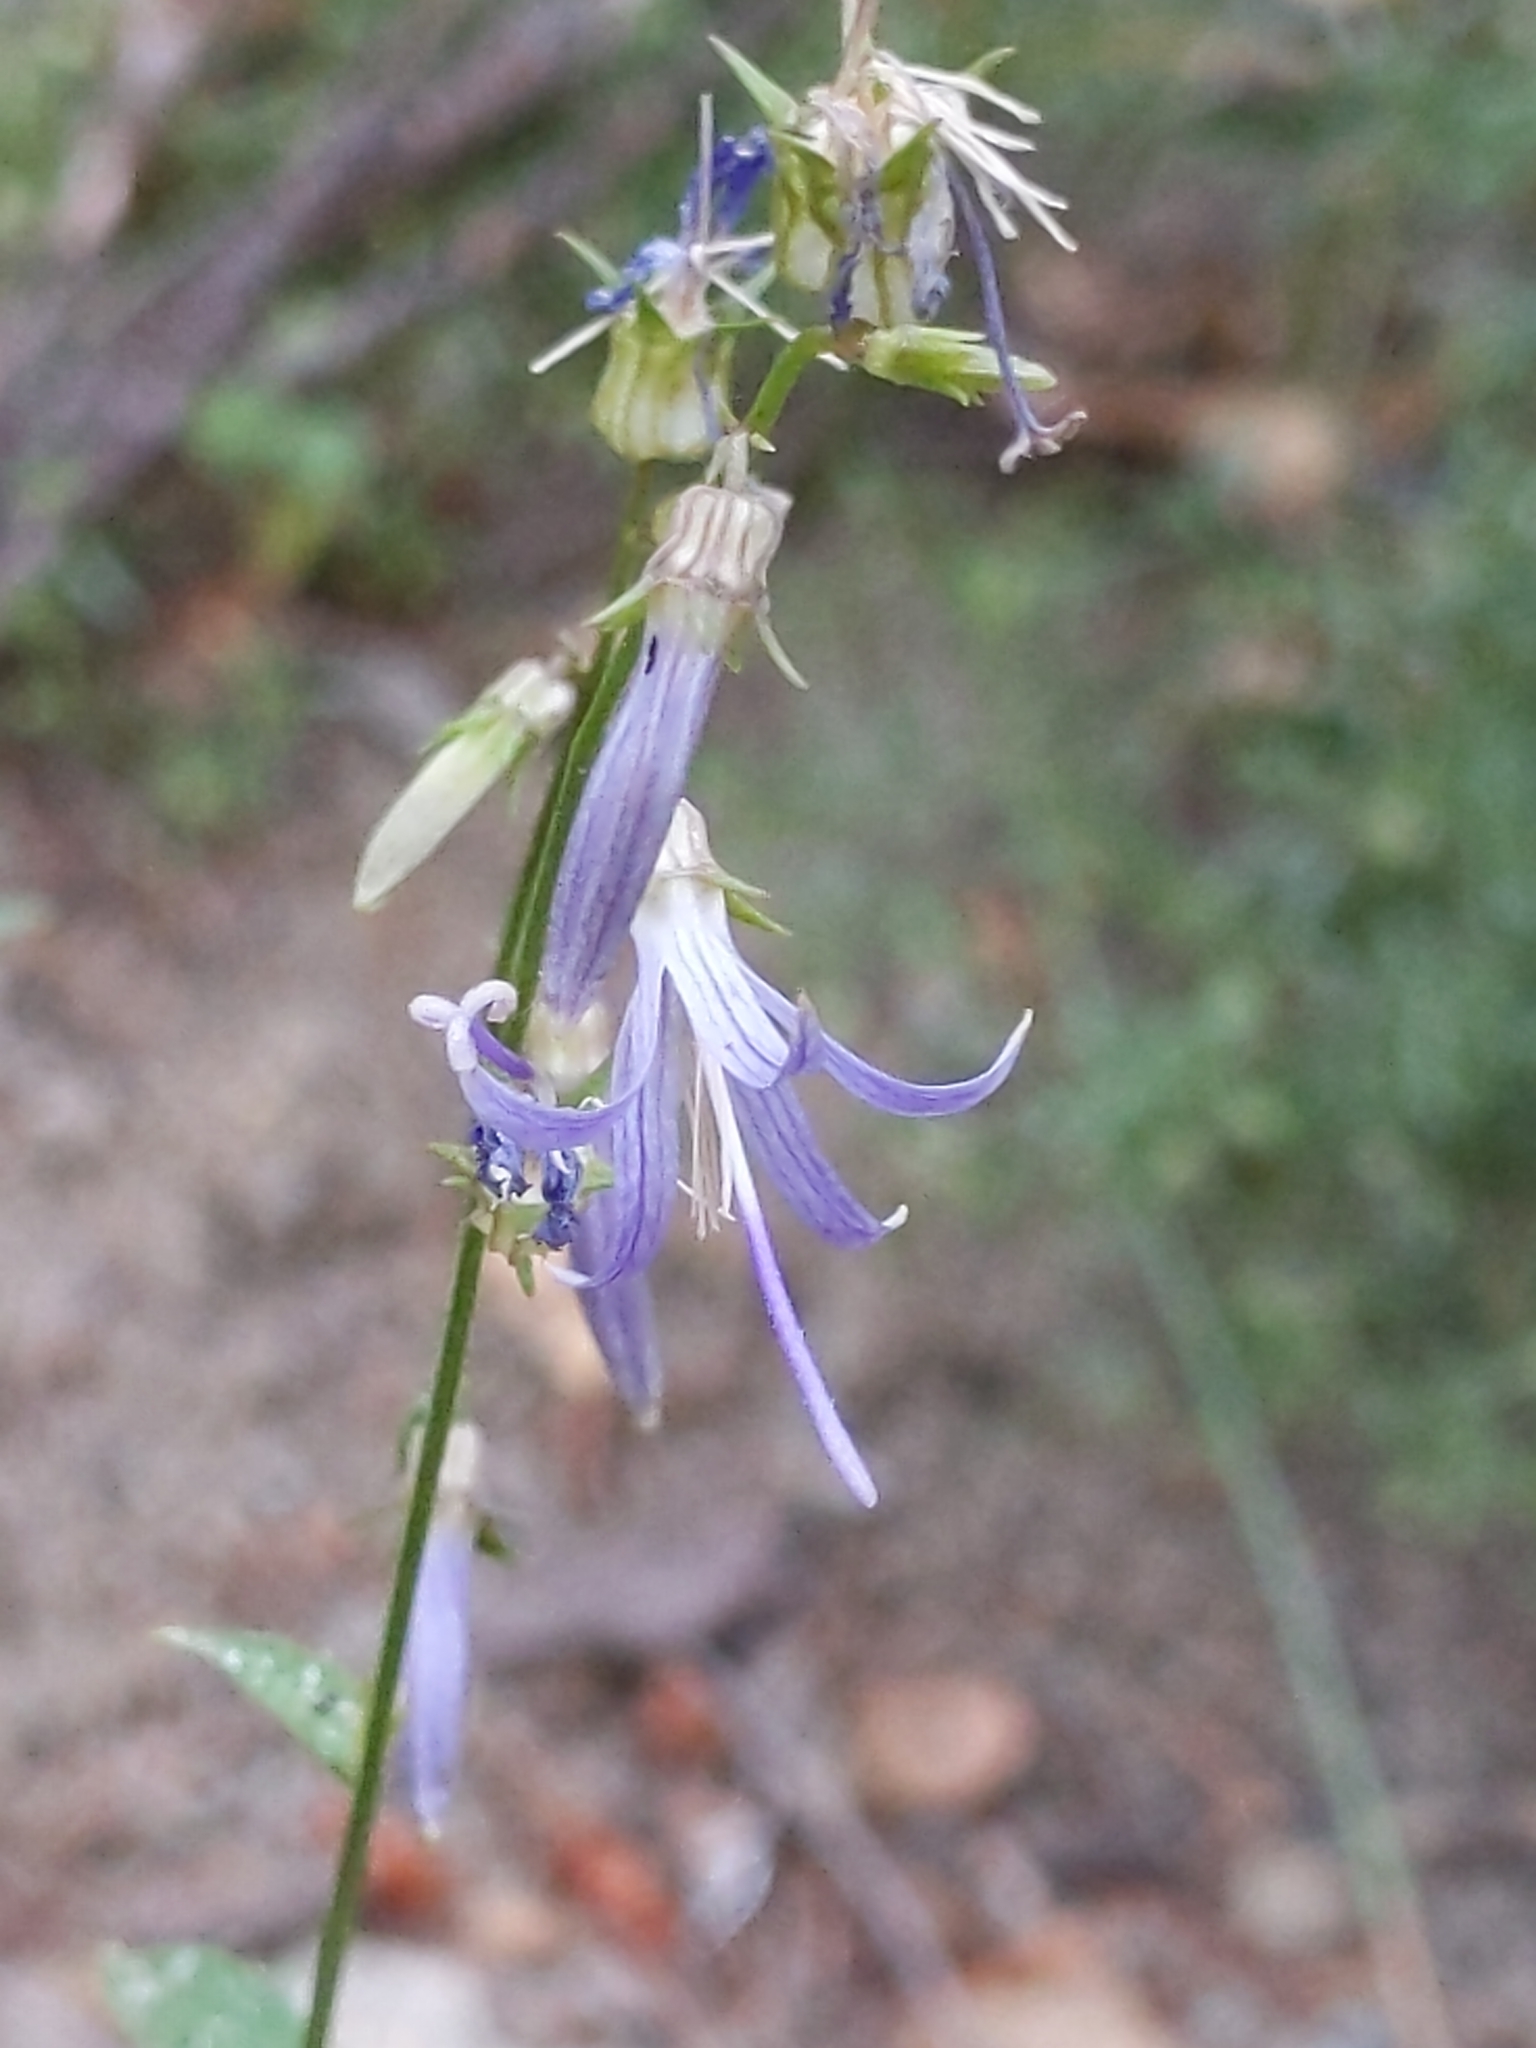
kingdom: Plantae
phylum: Tracheophyta
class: Magnoliopsida
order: Asterales
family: Campanulaceae
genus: Smithiastrum
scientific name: Smithiastrum prenanthoides
